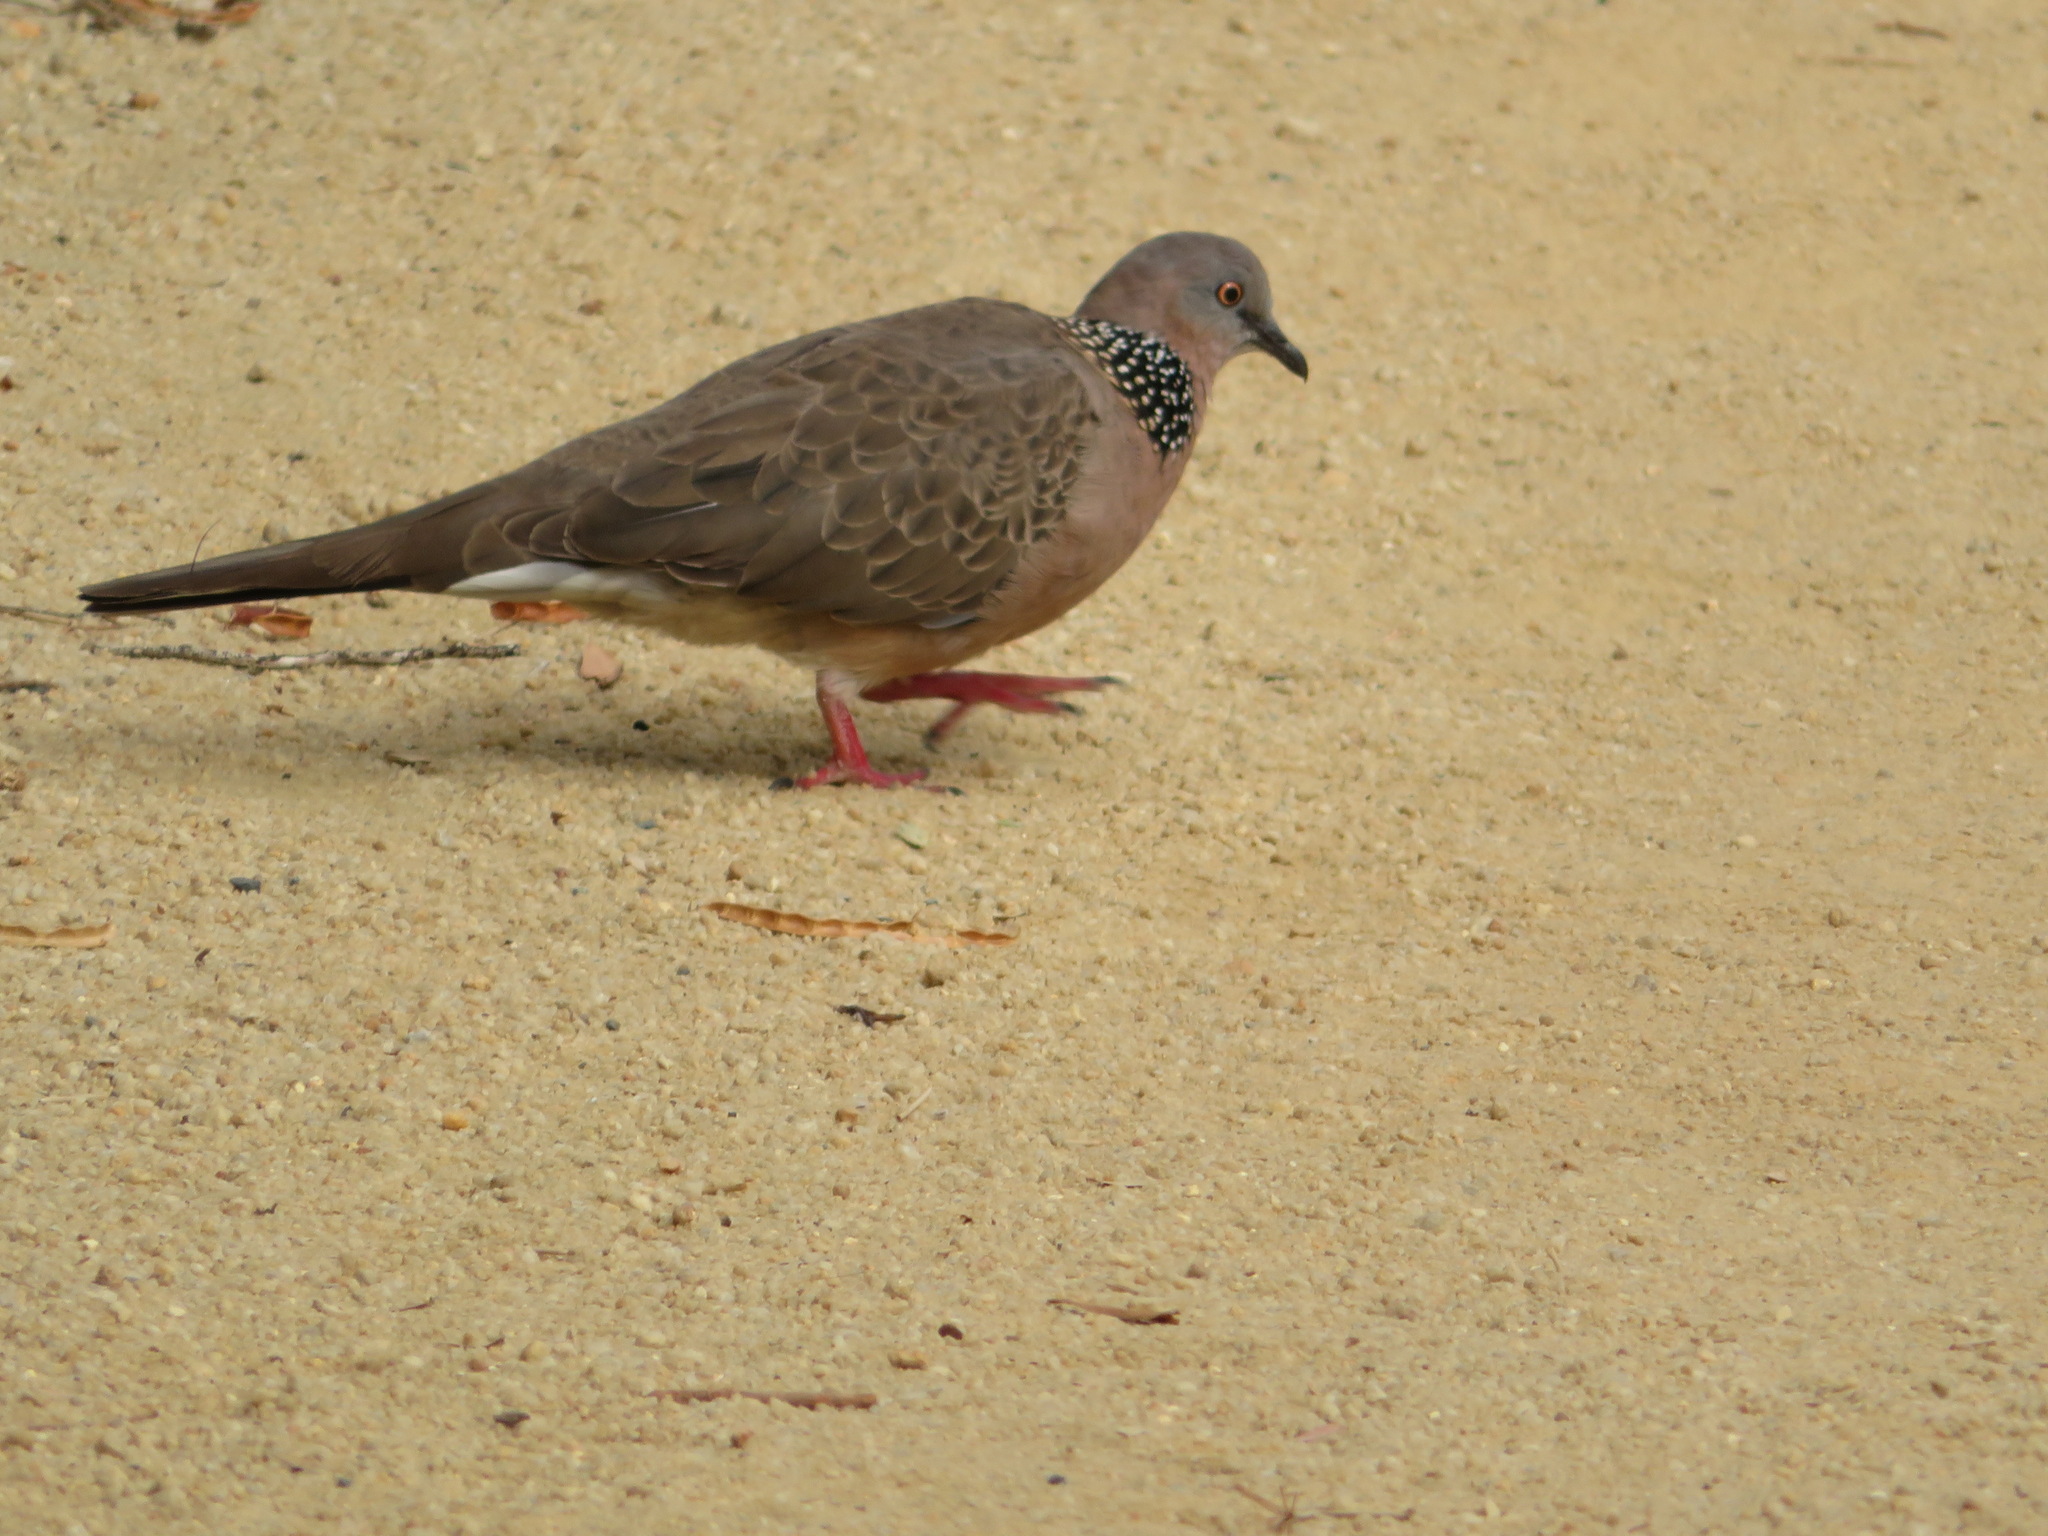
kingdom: Animalia
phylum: Chordata
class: Aves
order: Columbiformes
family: Columbidae
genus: Spilopelia
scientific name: Spilopelia chinensis
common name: Spotted dove
